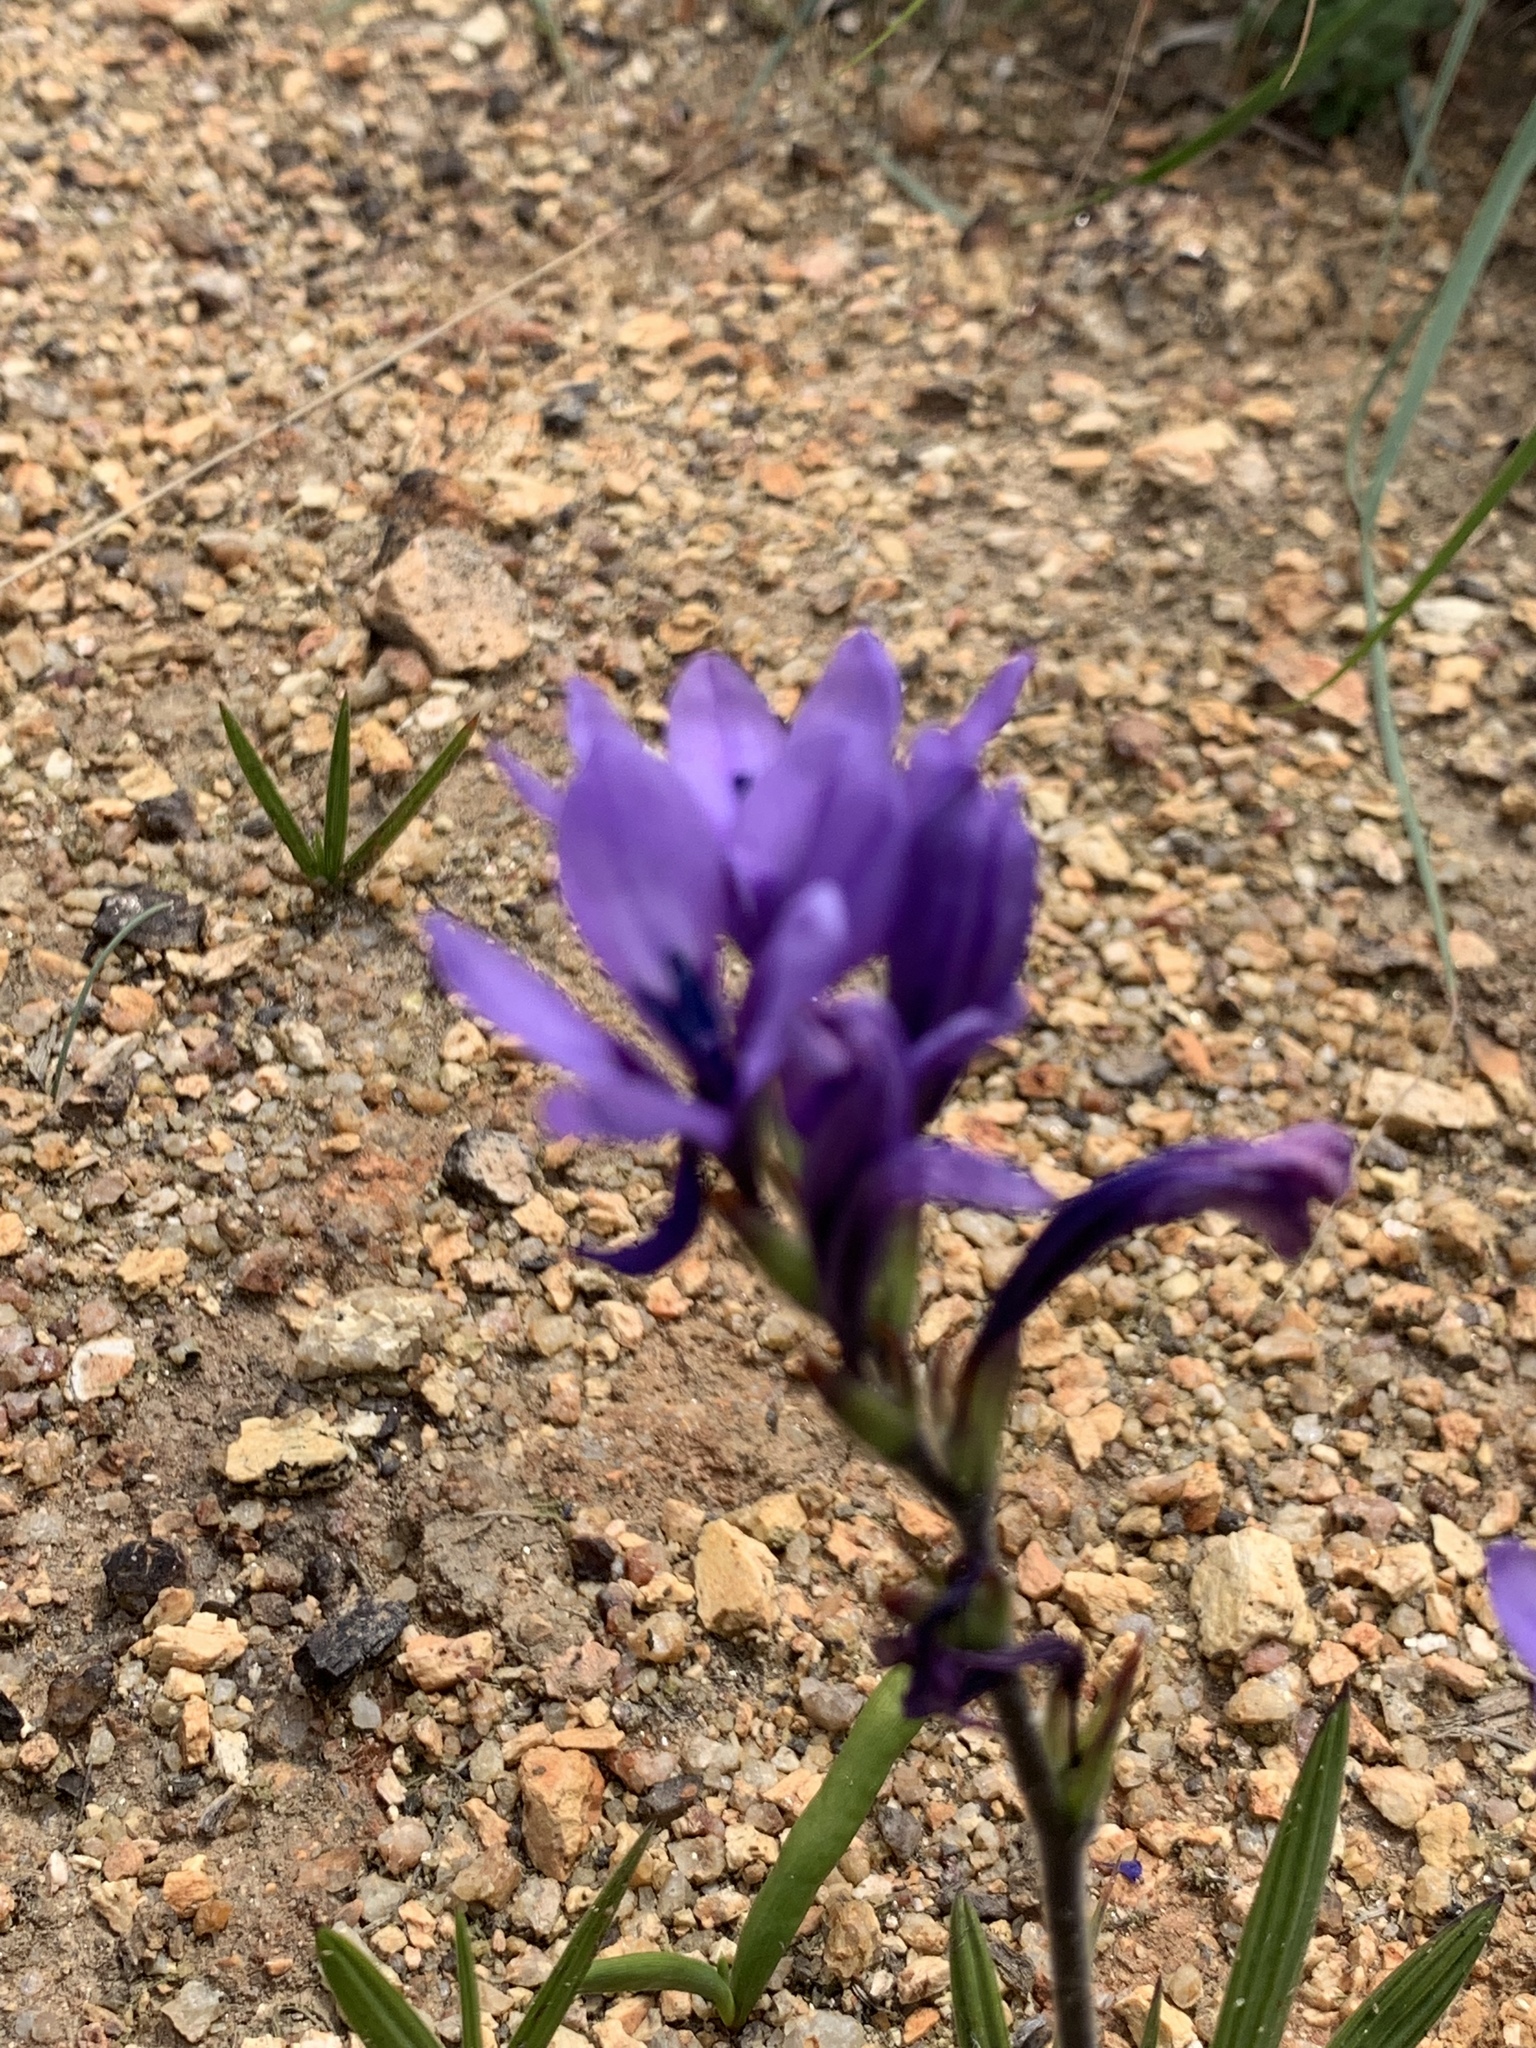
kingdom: Plantae
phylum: Tracheophyta
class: Liliopsida
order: Asparagales
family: Iridaceae
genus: Babiana
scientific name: Babiana nervosa
